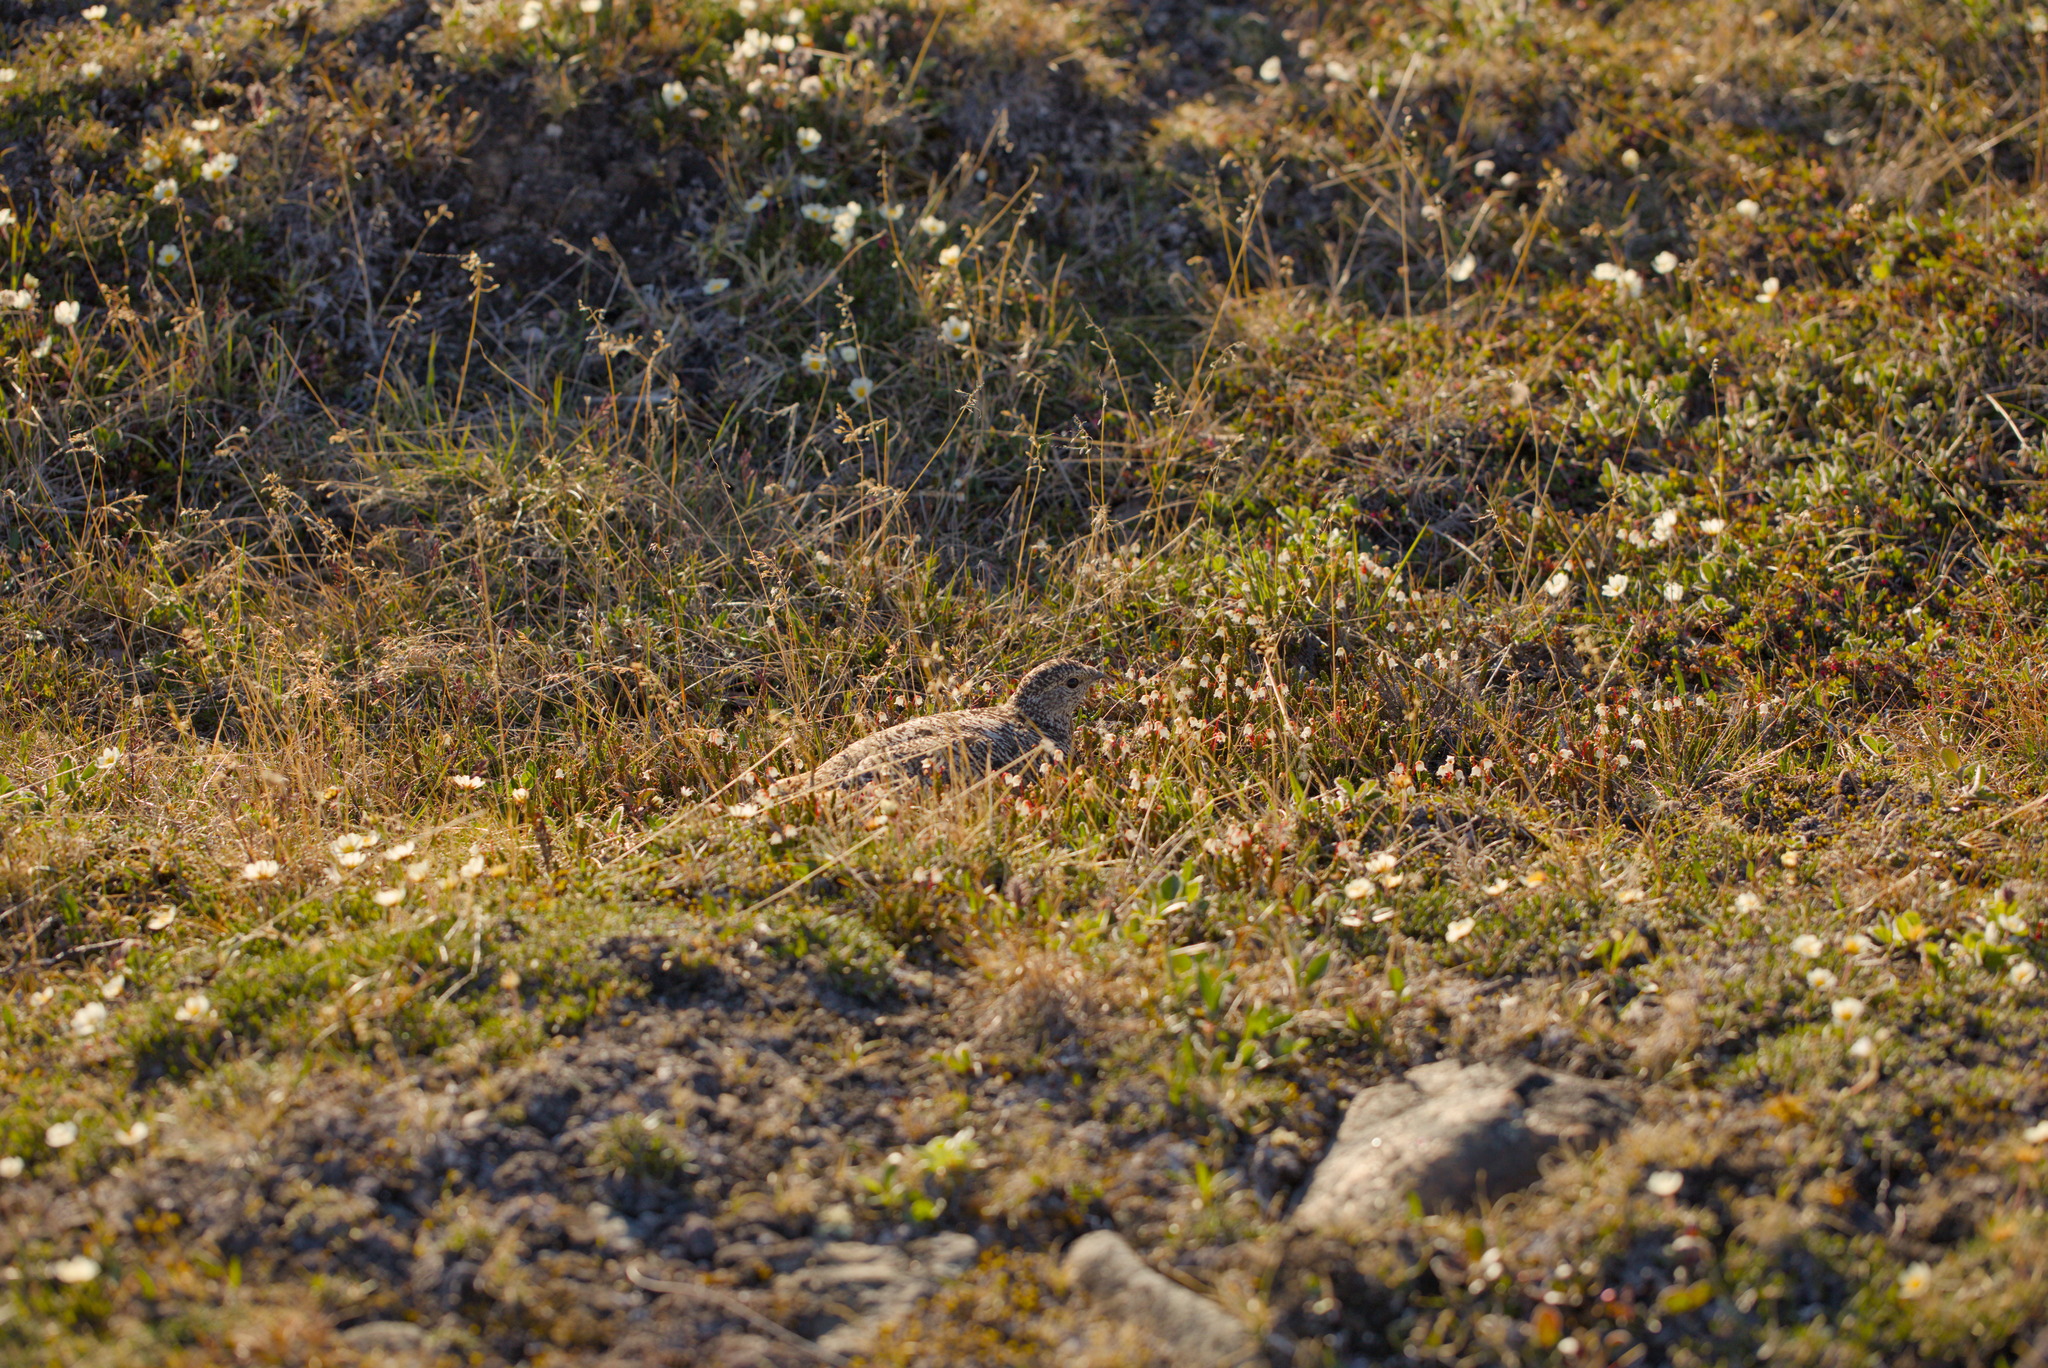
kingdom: Animalia
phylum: Chordata
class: Aves
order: Galliformes
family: Phasianidae
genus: Lagopus
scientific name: Lagopus muta
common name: Rock ptarmigan
